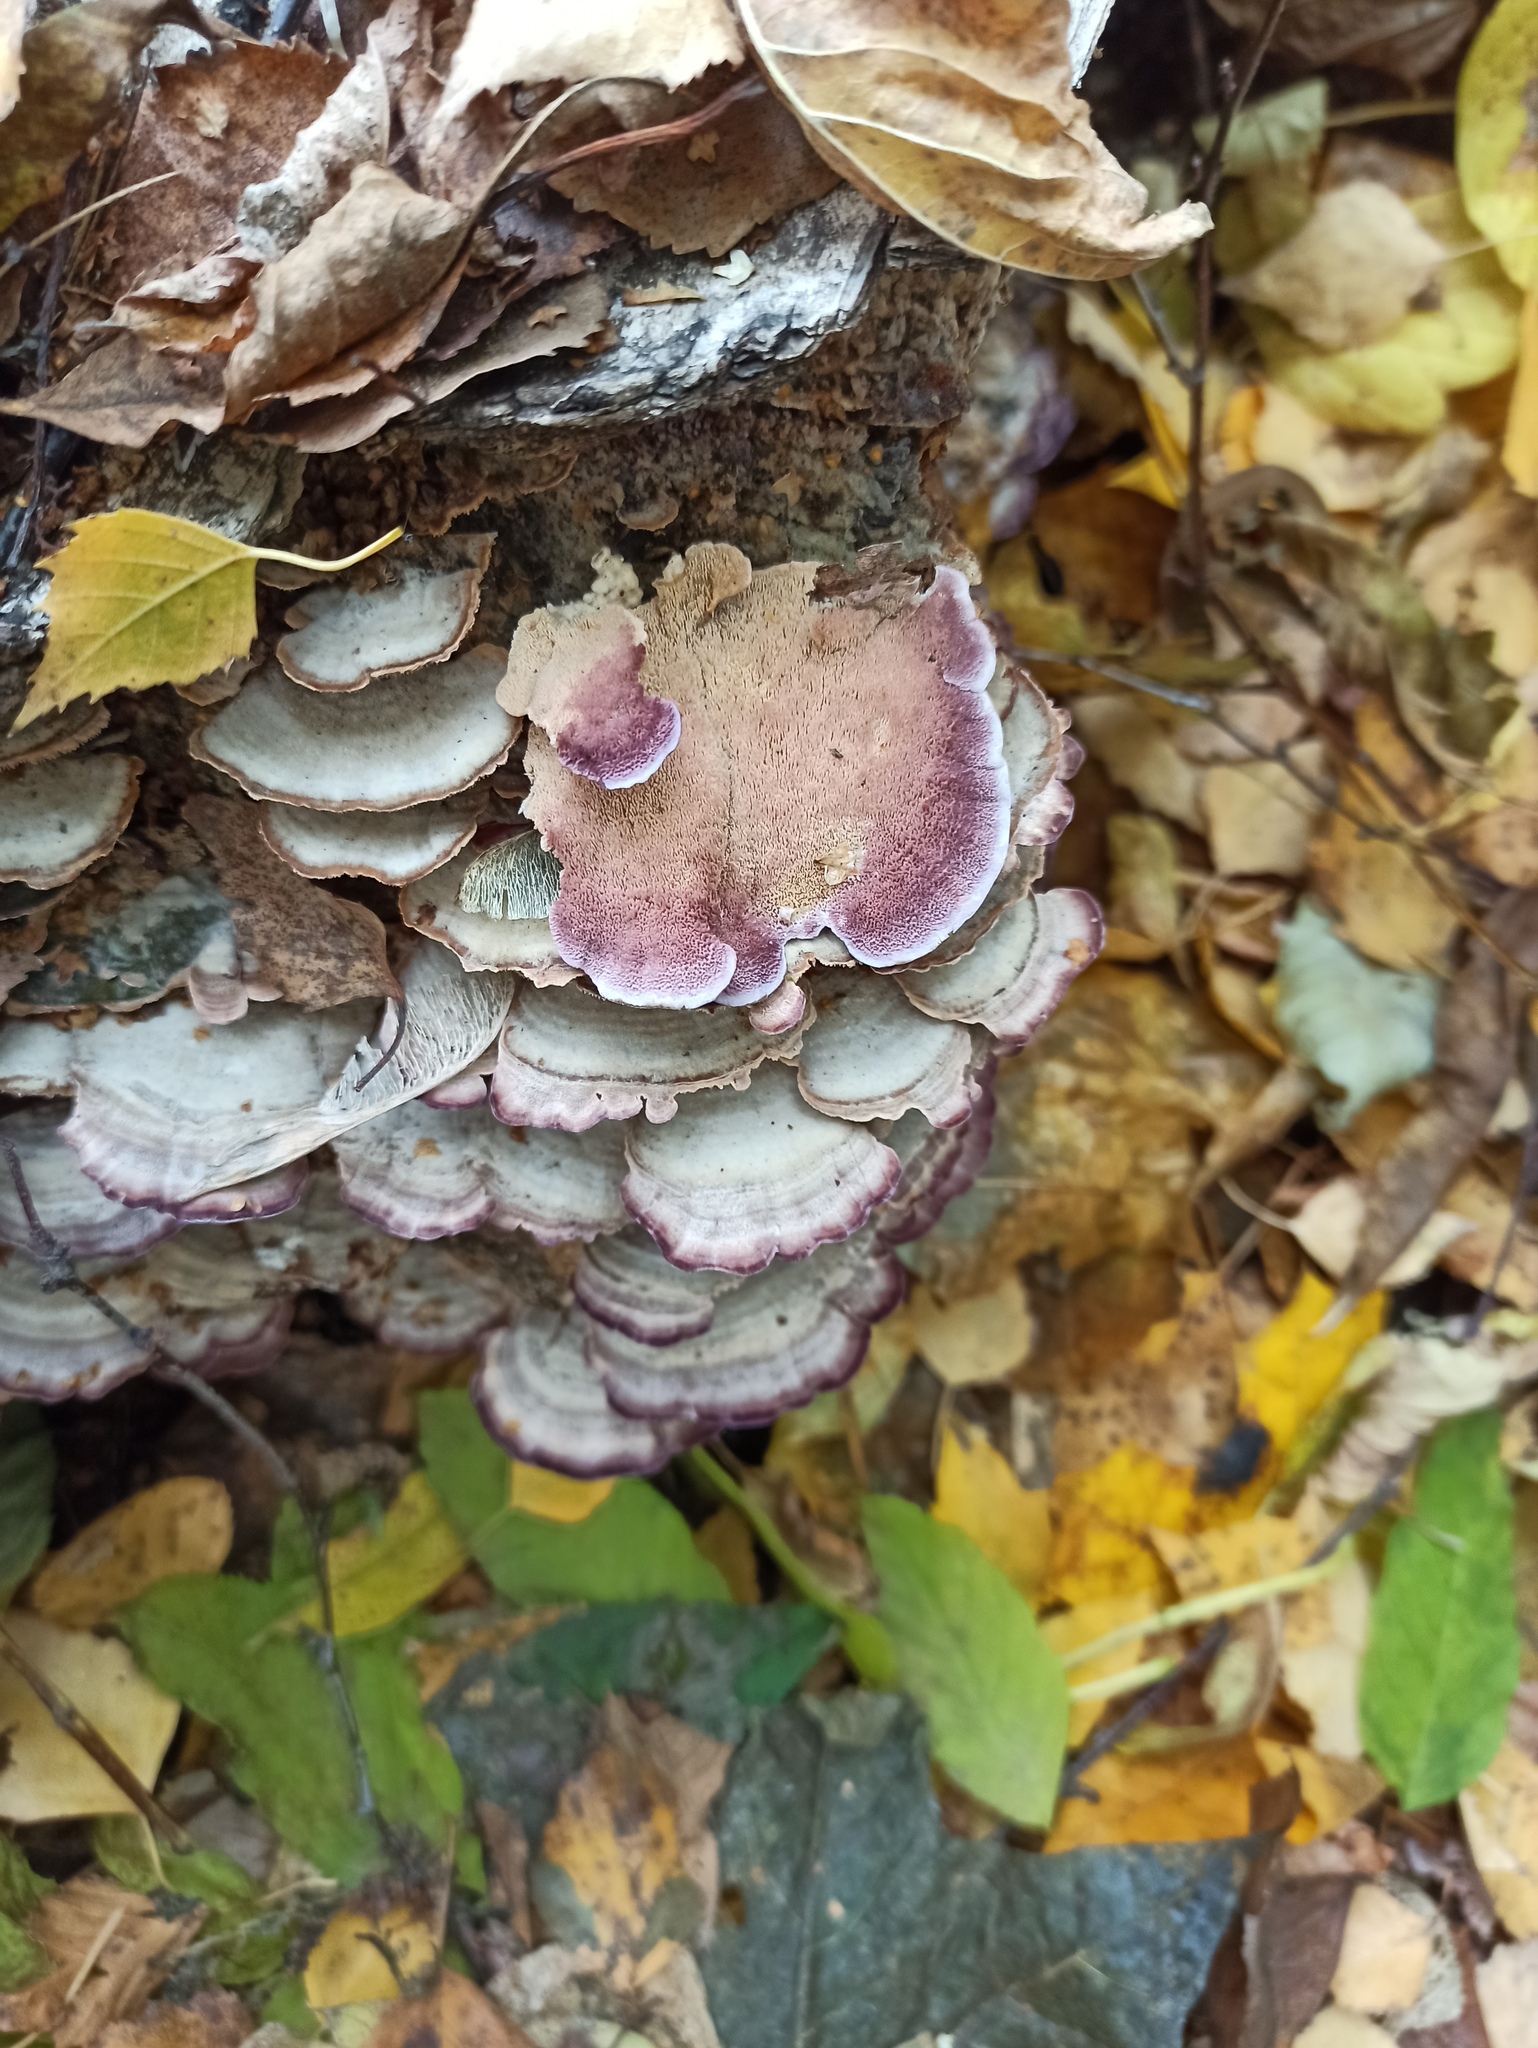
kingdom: Fungi
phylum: Basidiomycota
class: Agaricomycetes
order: Hymenochaetales
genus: Trichaptum
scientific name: Trichaptum biforme
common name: Violet-toothed polypore
